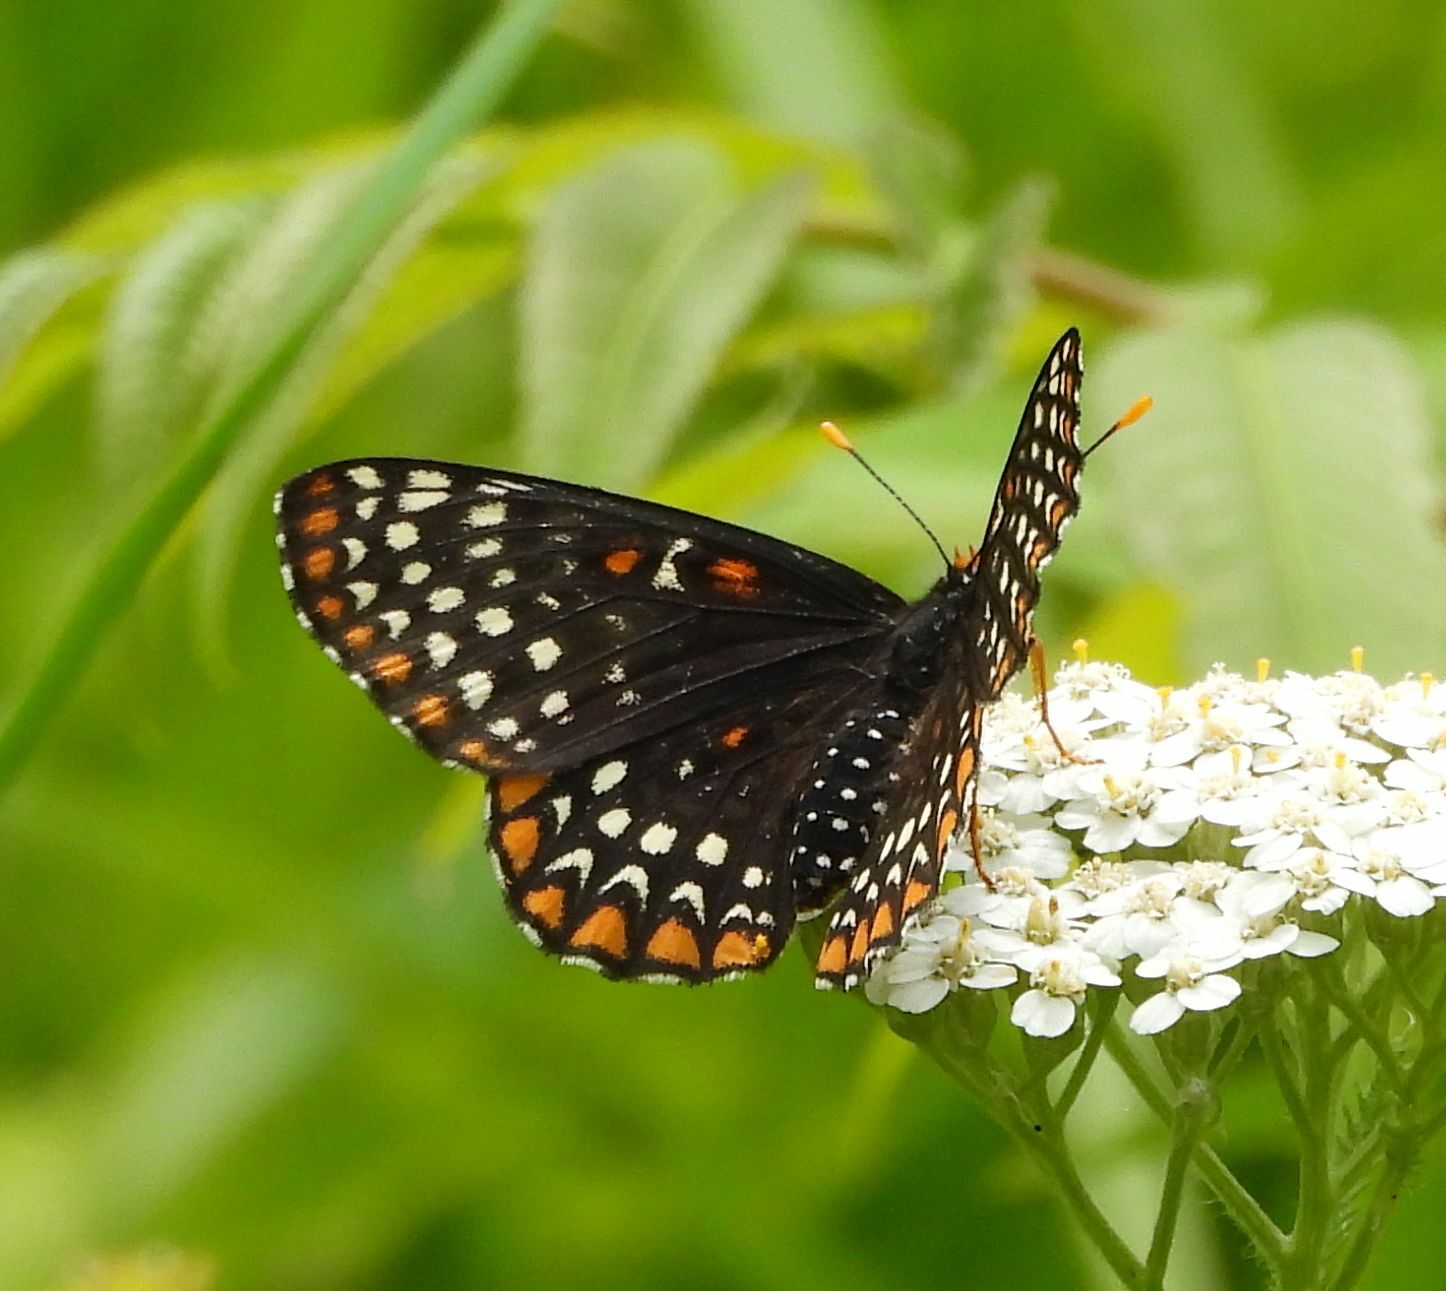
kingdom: Animalia
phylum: Arthropoda
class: Insecta
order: Lepidoptera
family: Nymphalidae
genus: Euphydryas
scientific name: Euphydryas phaeton
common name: Baltimore checkerspot
